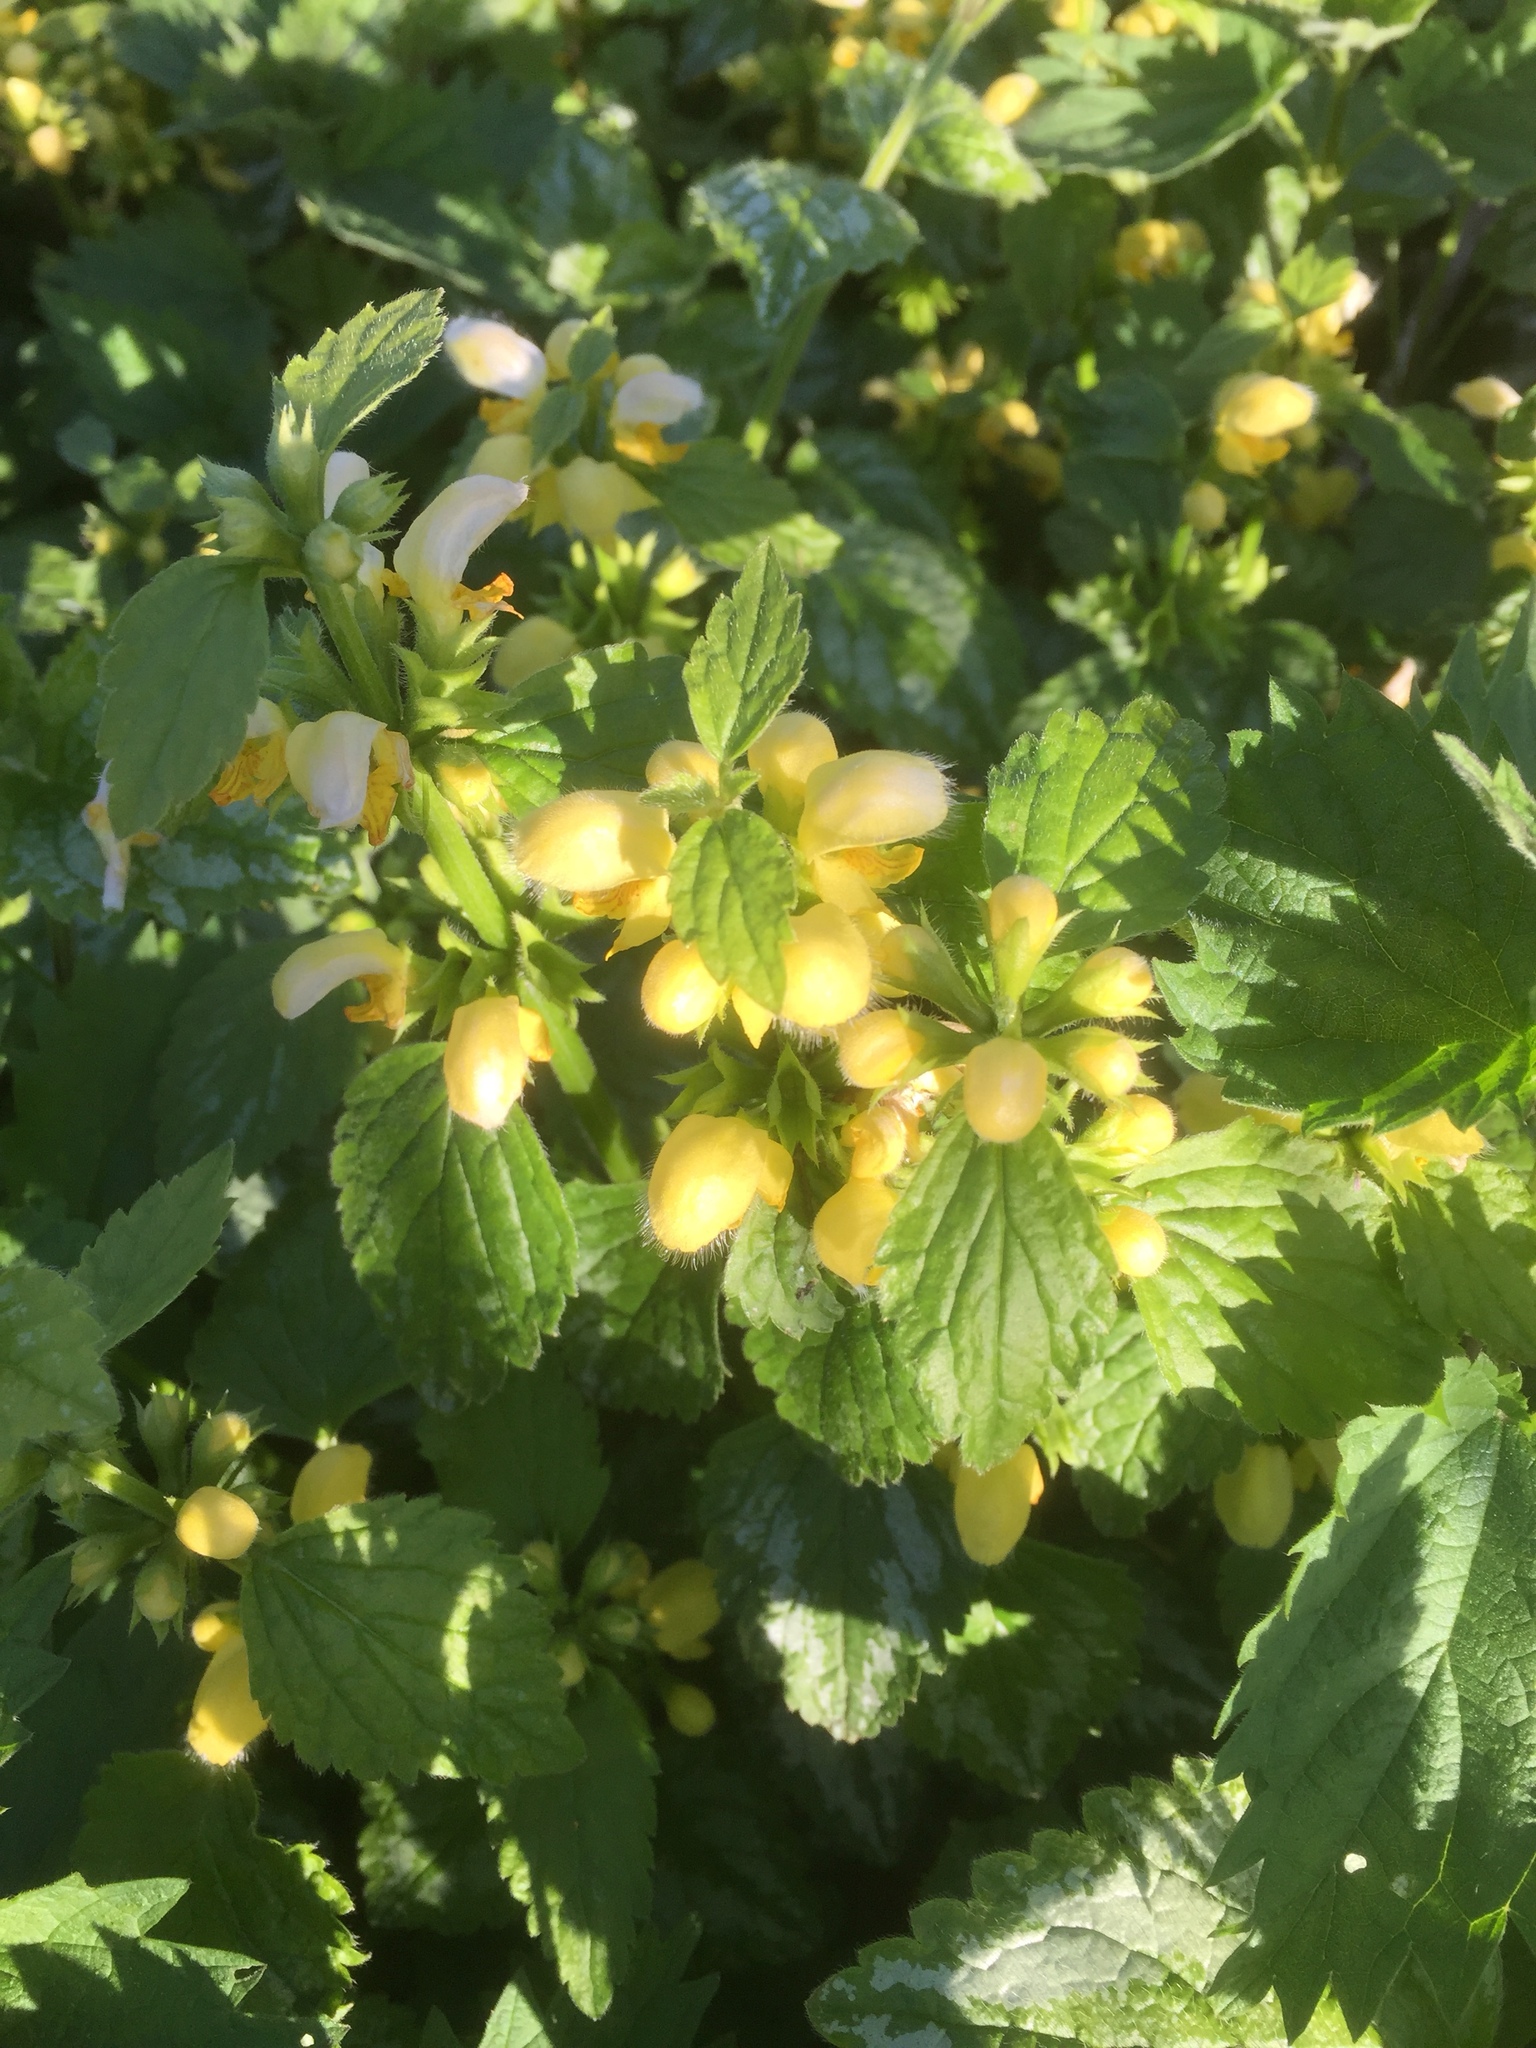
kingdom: Plantae
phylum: Tracheophyta
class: Magnoliopsida
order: Lamiales
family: Lamiaceae
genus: Lamium
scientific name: Lamium galeobdolon
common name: Yellow archangel
